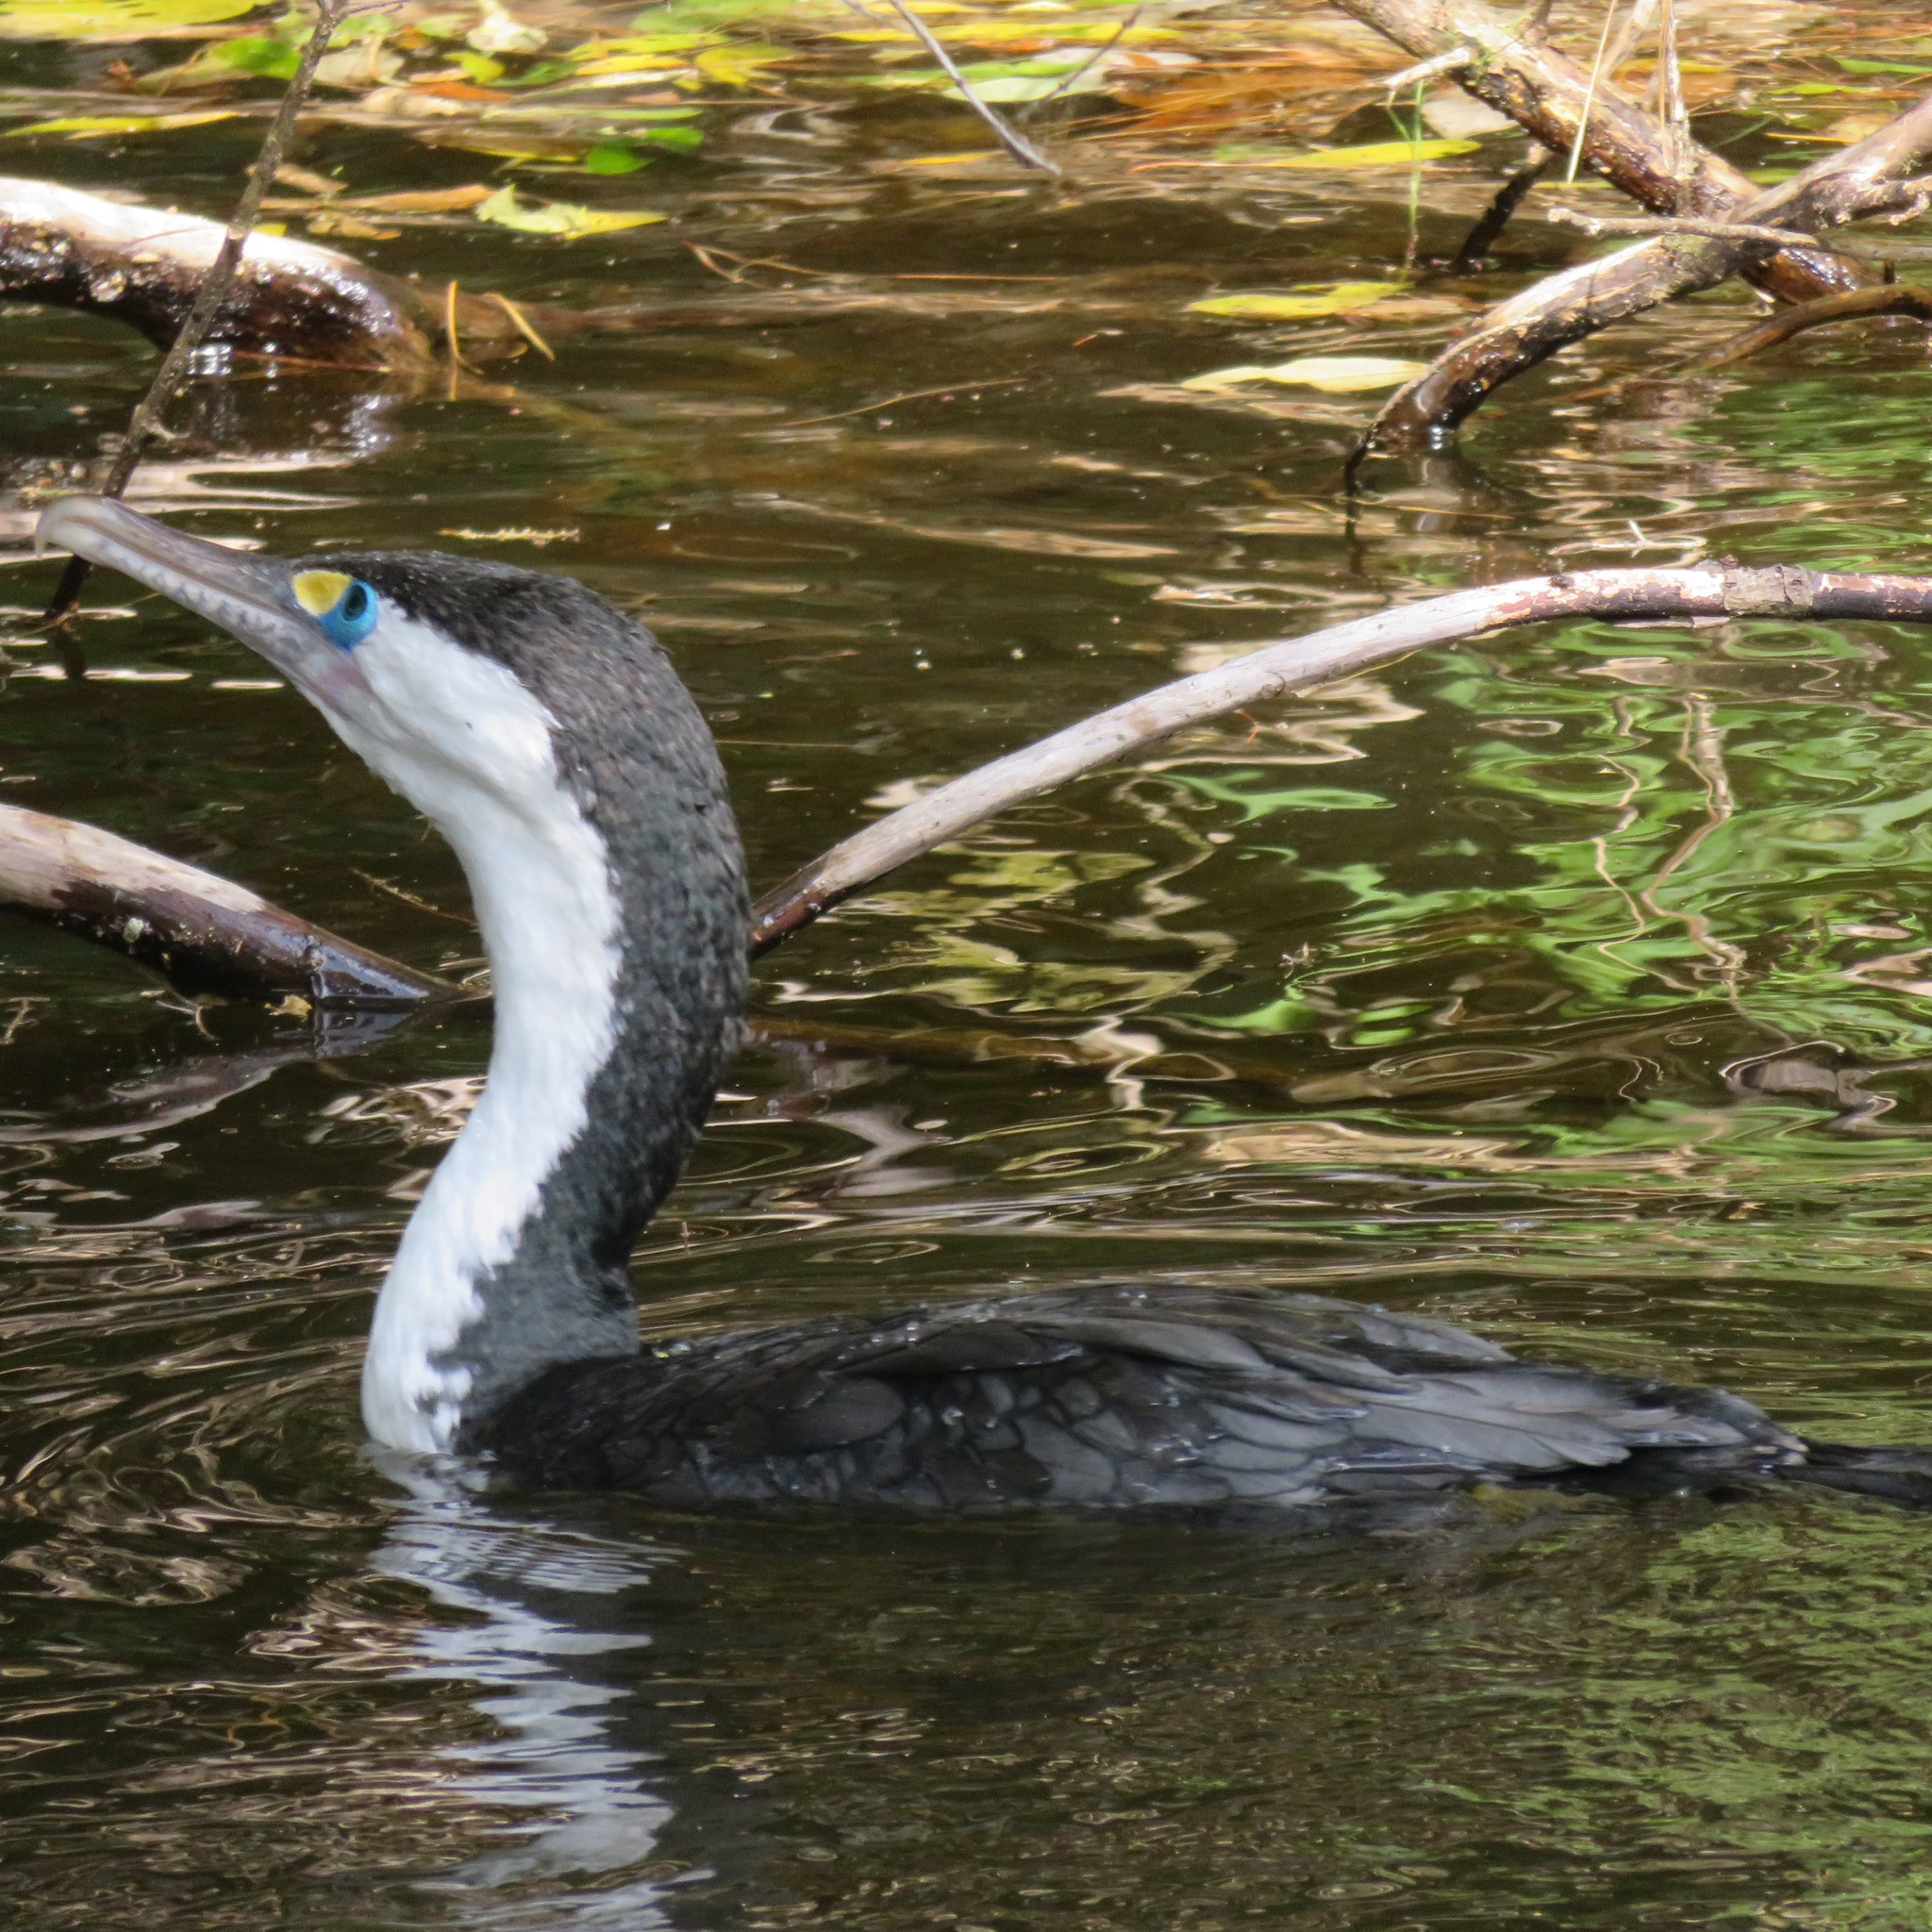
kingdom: Animalia
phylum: Chordata
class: Aves
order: Suliformes
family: Phalacrocoracidae
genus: Phalacrocorax
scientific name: Phalacrocorax varius
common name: Pied cormorant
